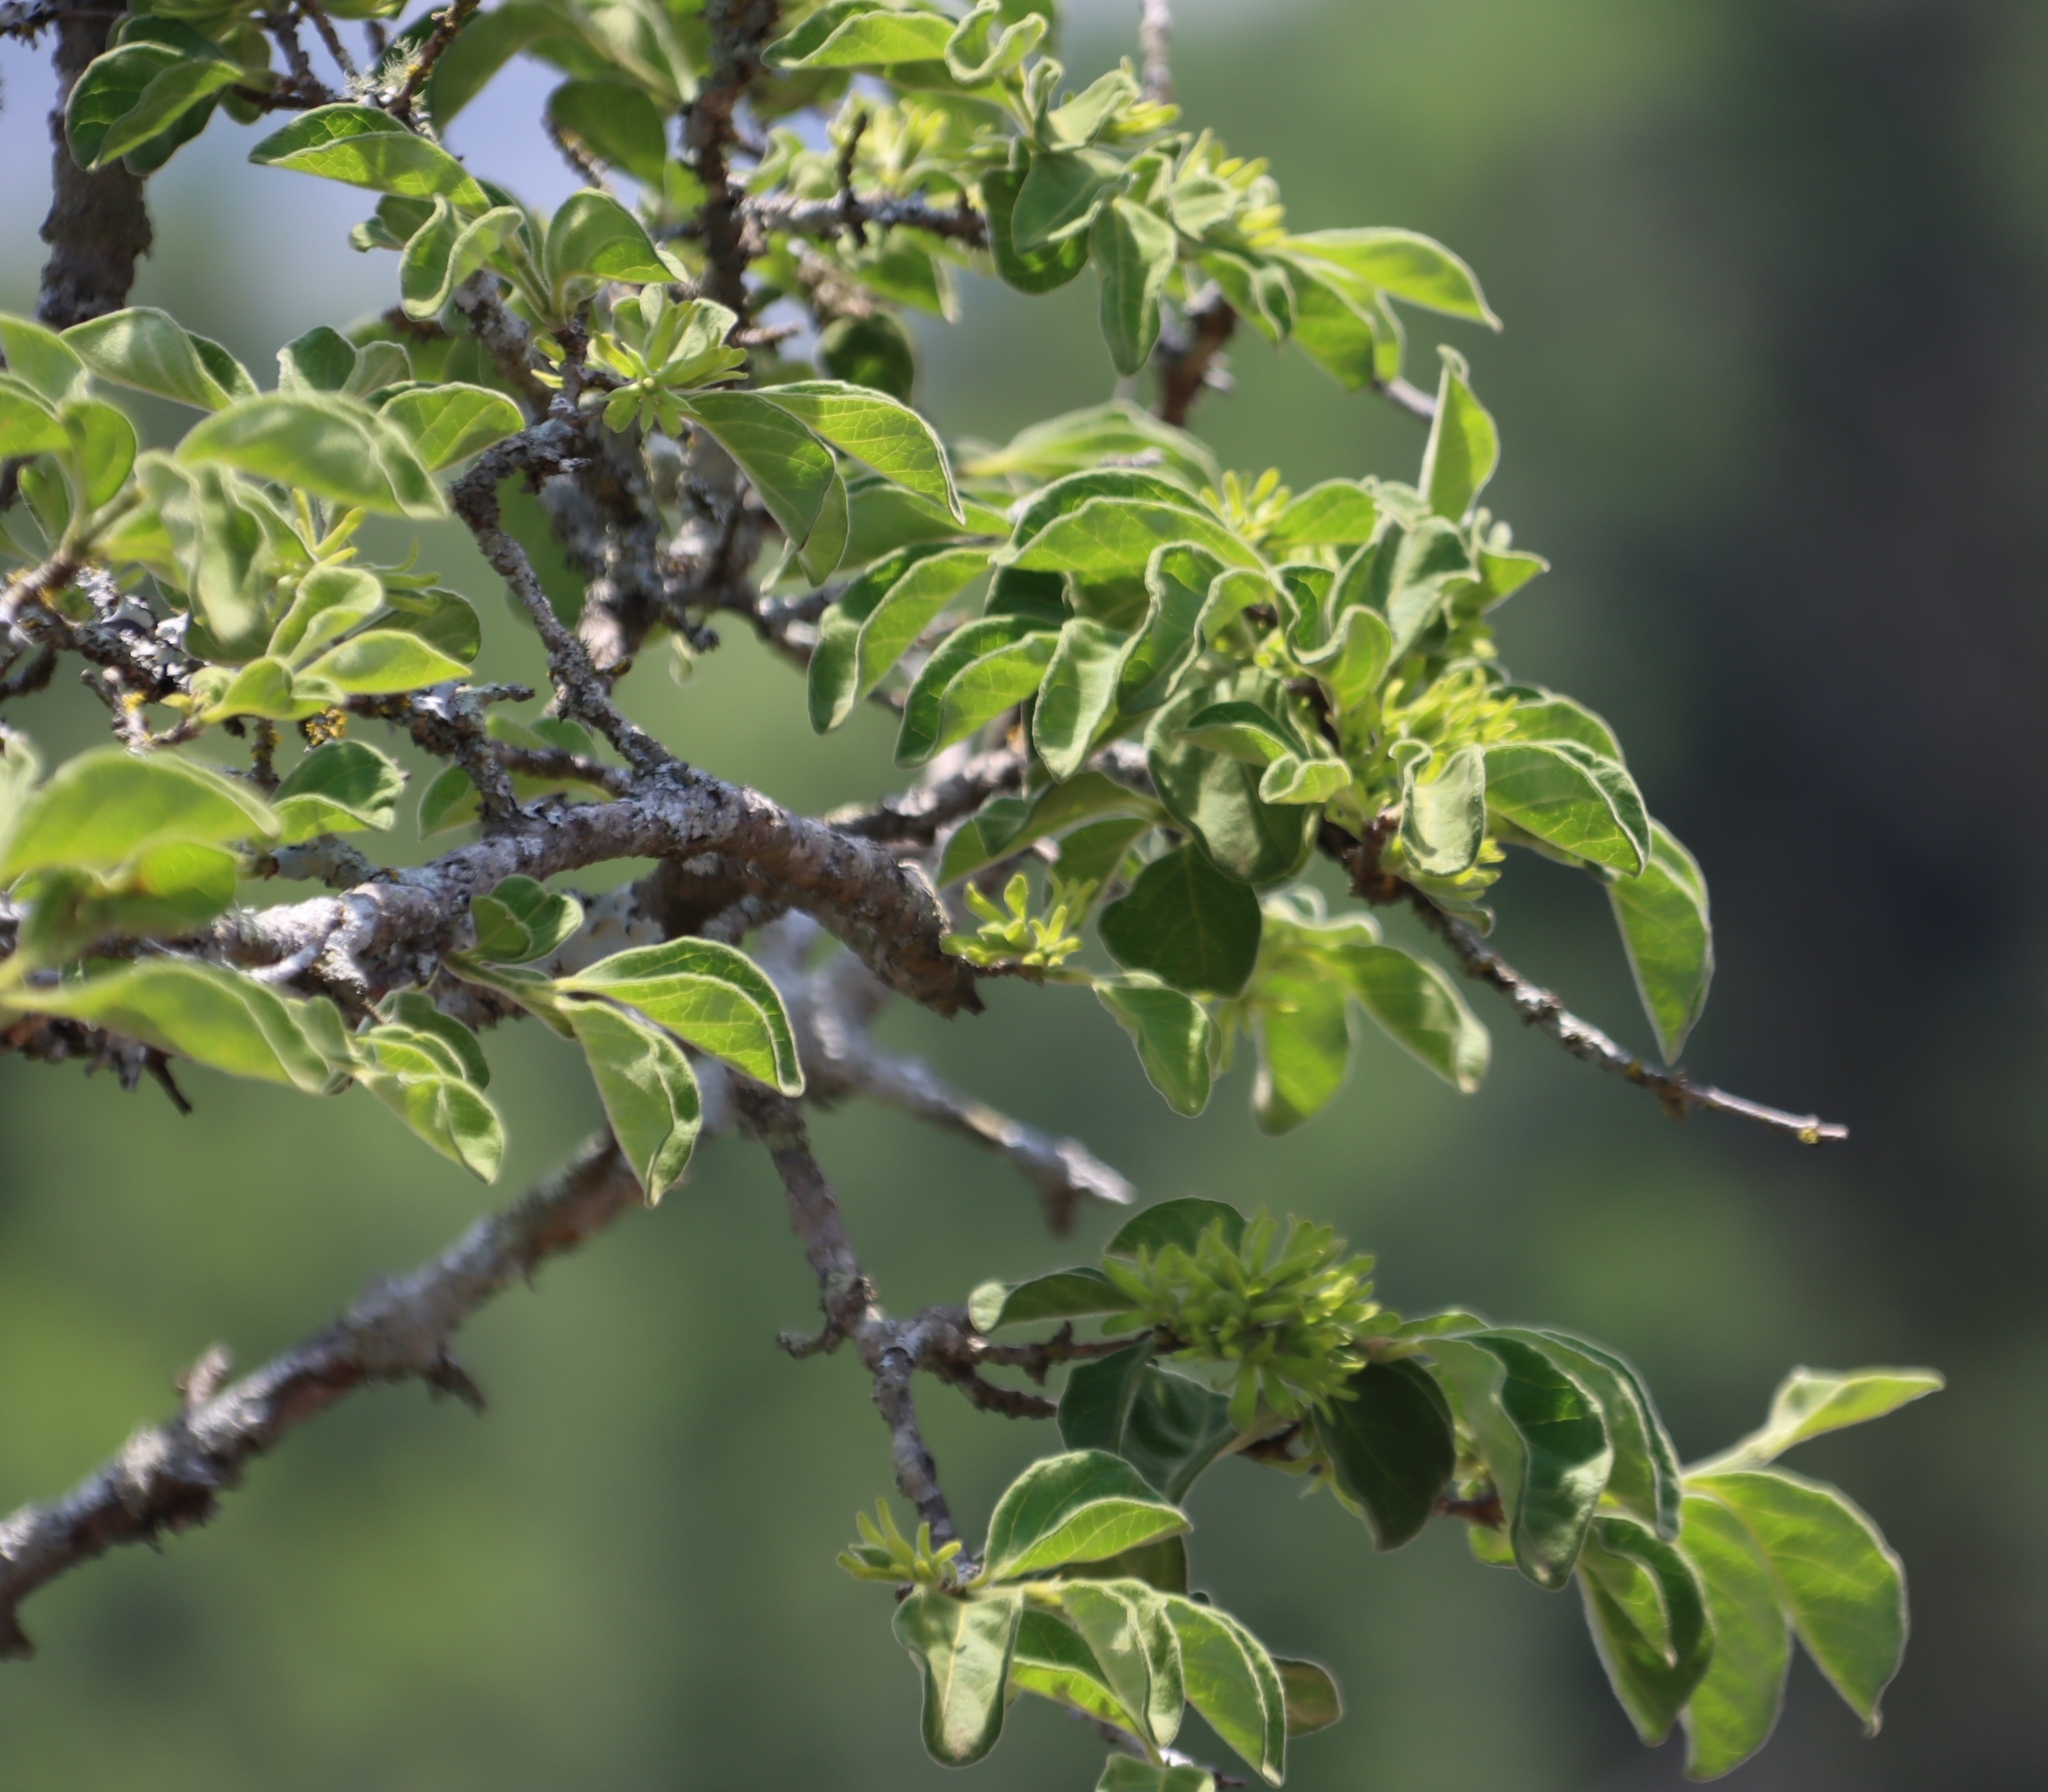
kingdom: Plantae
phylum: Tracheophyta
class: Magnoliopsida
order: Gentianales
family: Rubiaceae
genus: Vangueria
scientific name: Vangueria infausta
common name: Medlar
